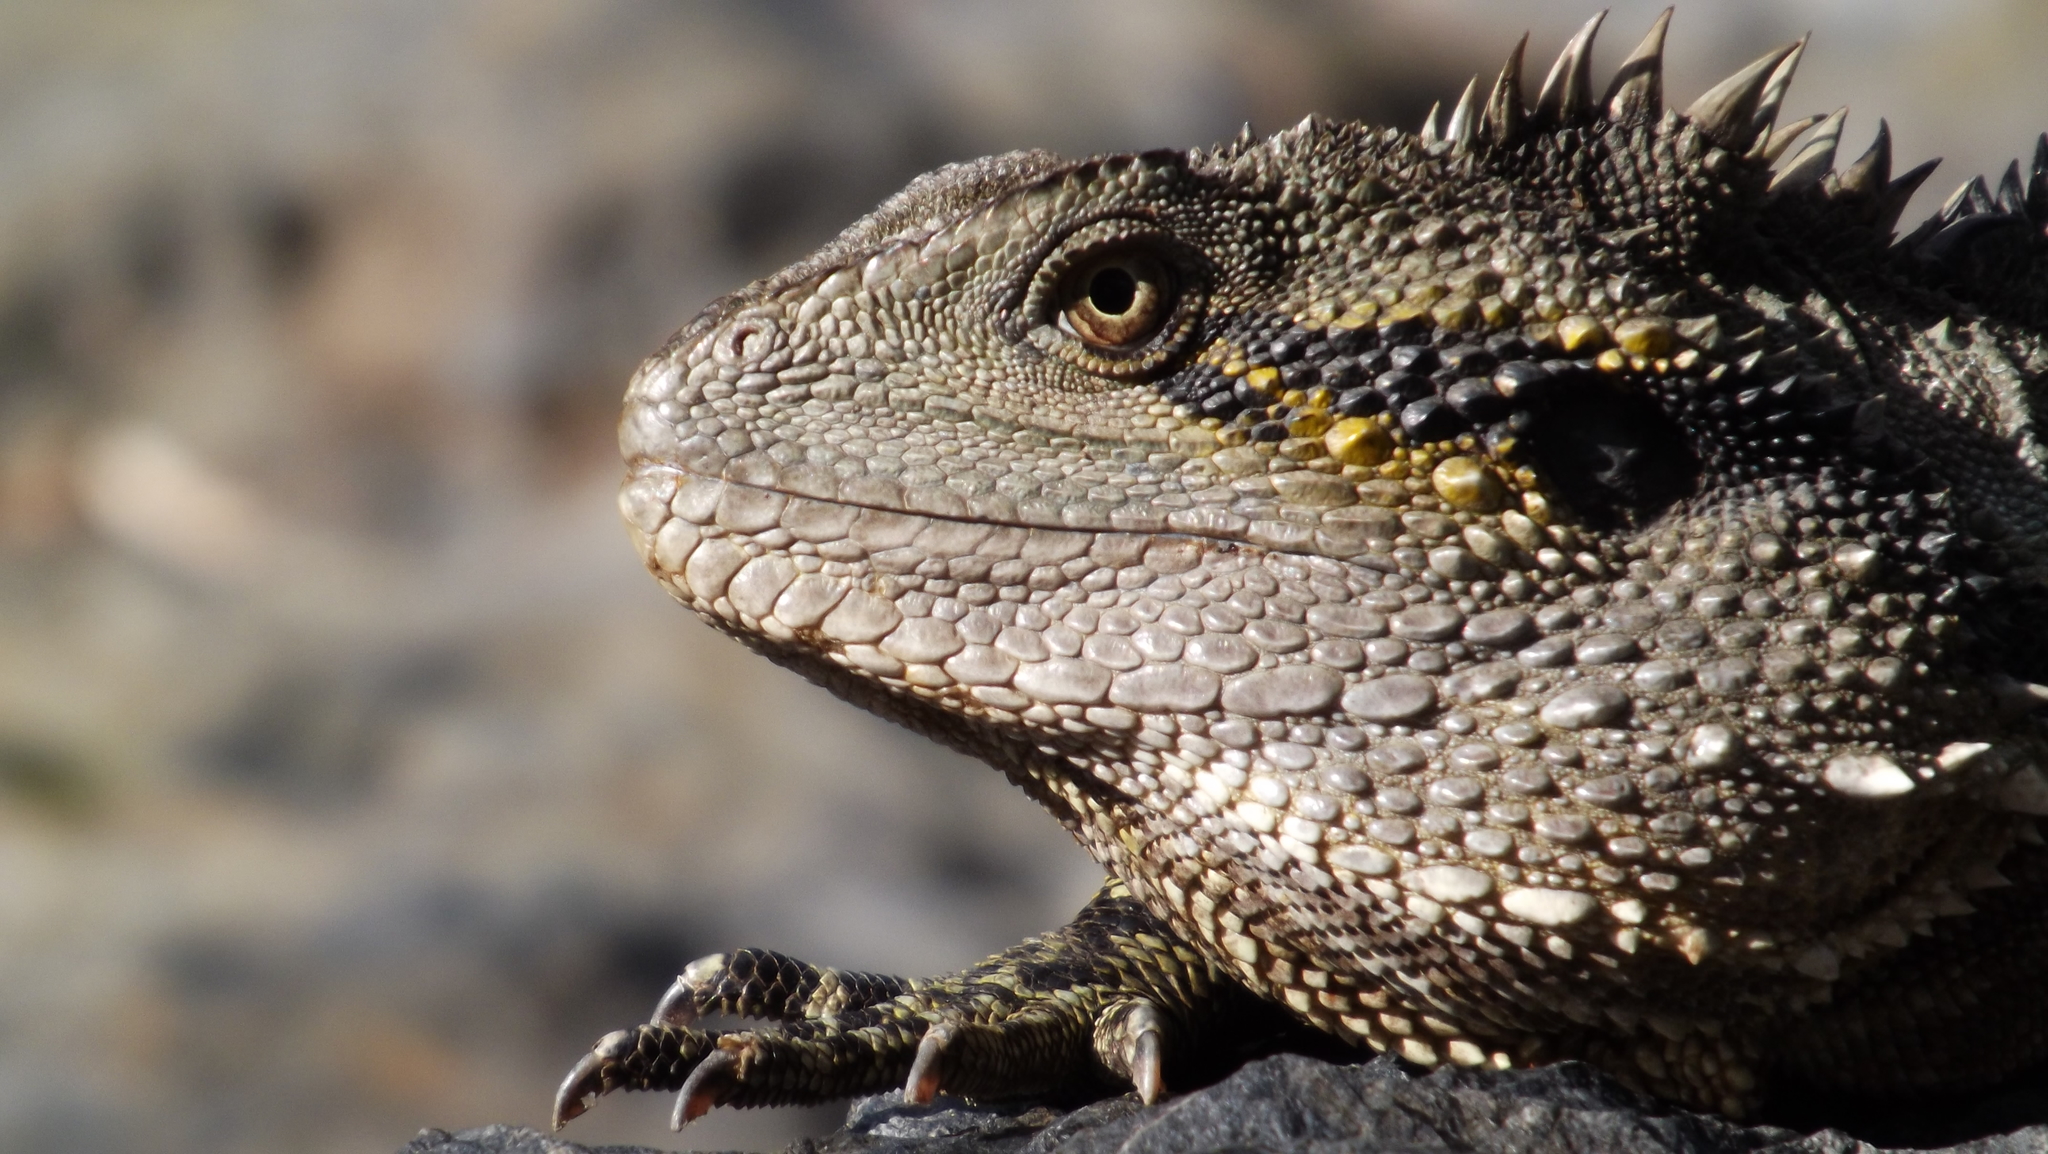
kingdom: Animalia
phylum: Chordata
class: Squamata
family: Agamidae
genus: Intellagama
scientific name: Intellagama lesueurii
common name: Eastern water dragon
